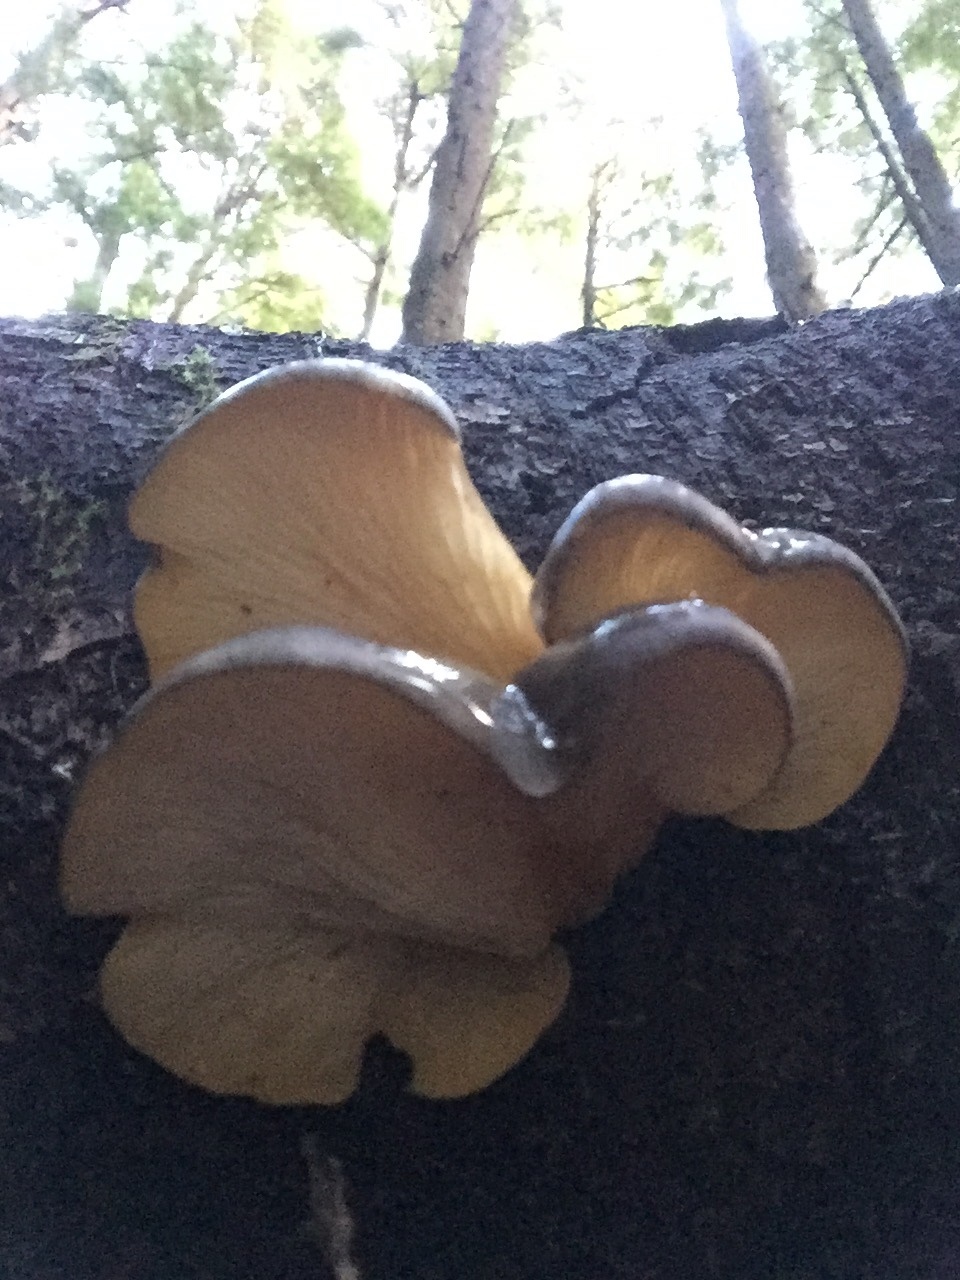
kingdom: Fungi
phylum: Basidiomycota
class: Agaricomycetes
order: Agaricales
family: Sarcomyxaceae
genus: Sarcomyxa
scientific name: Sarcomyxa serotina
